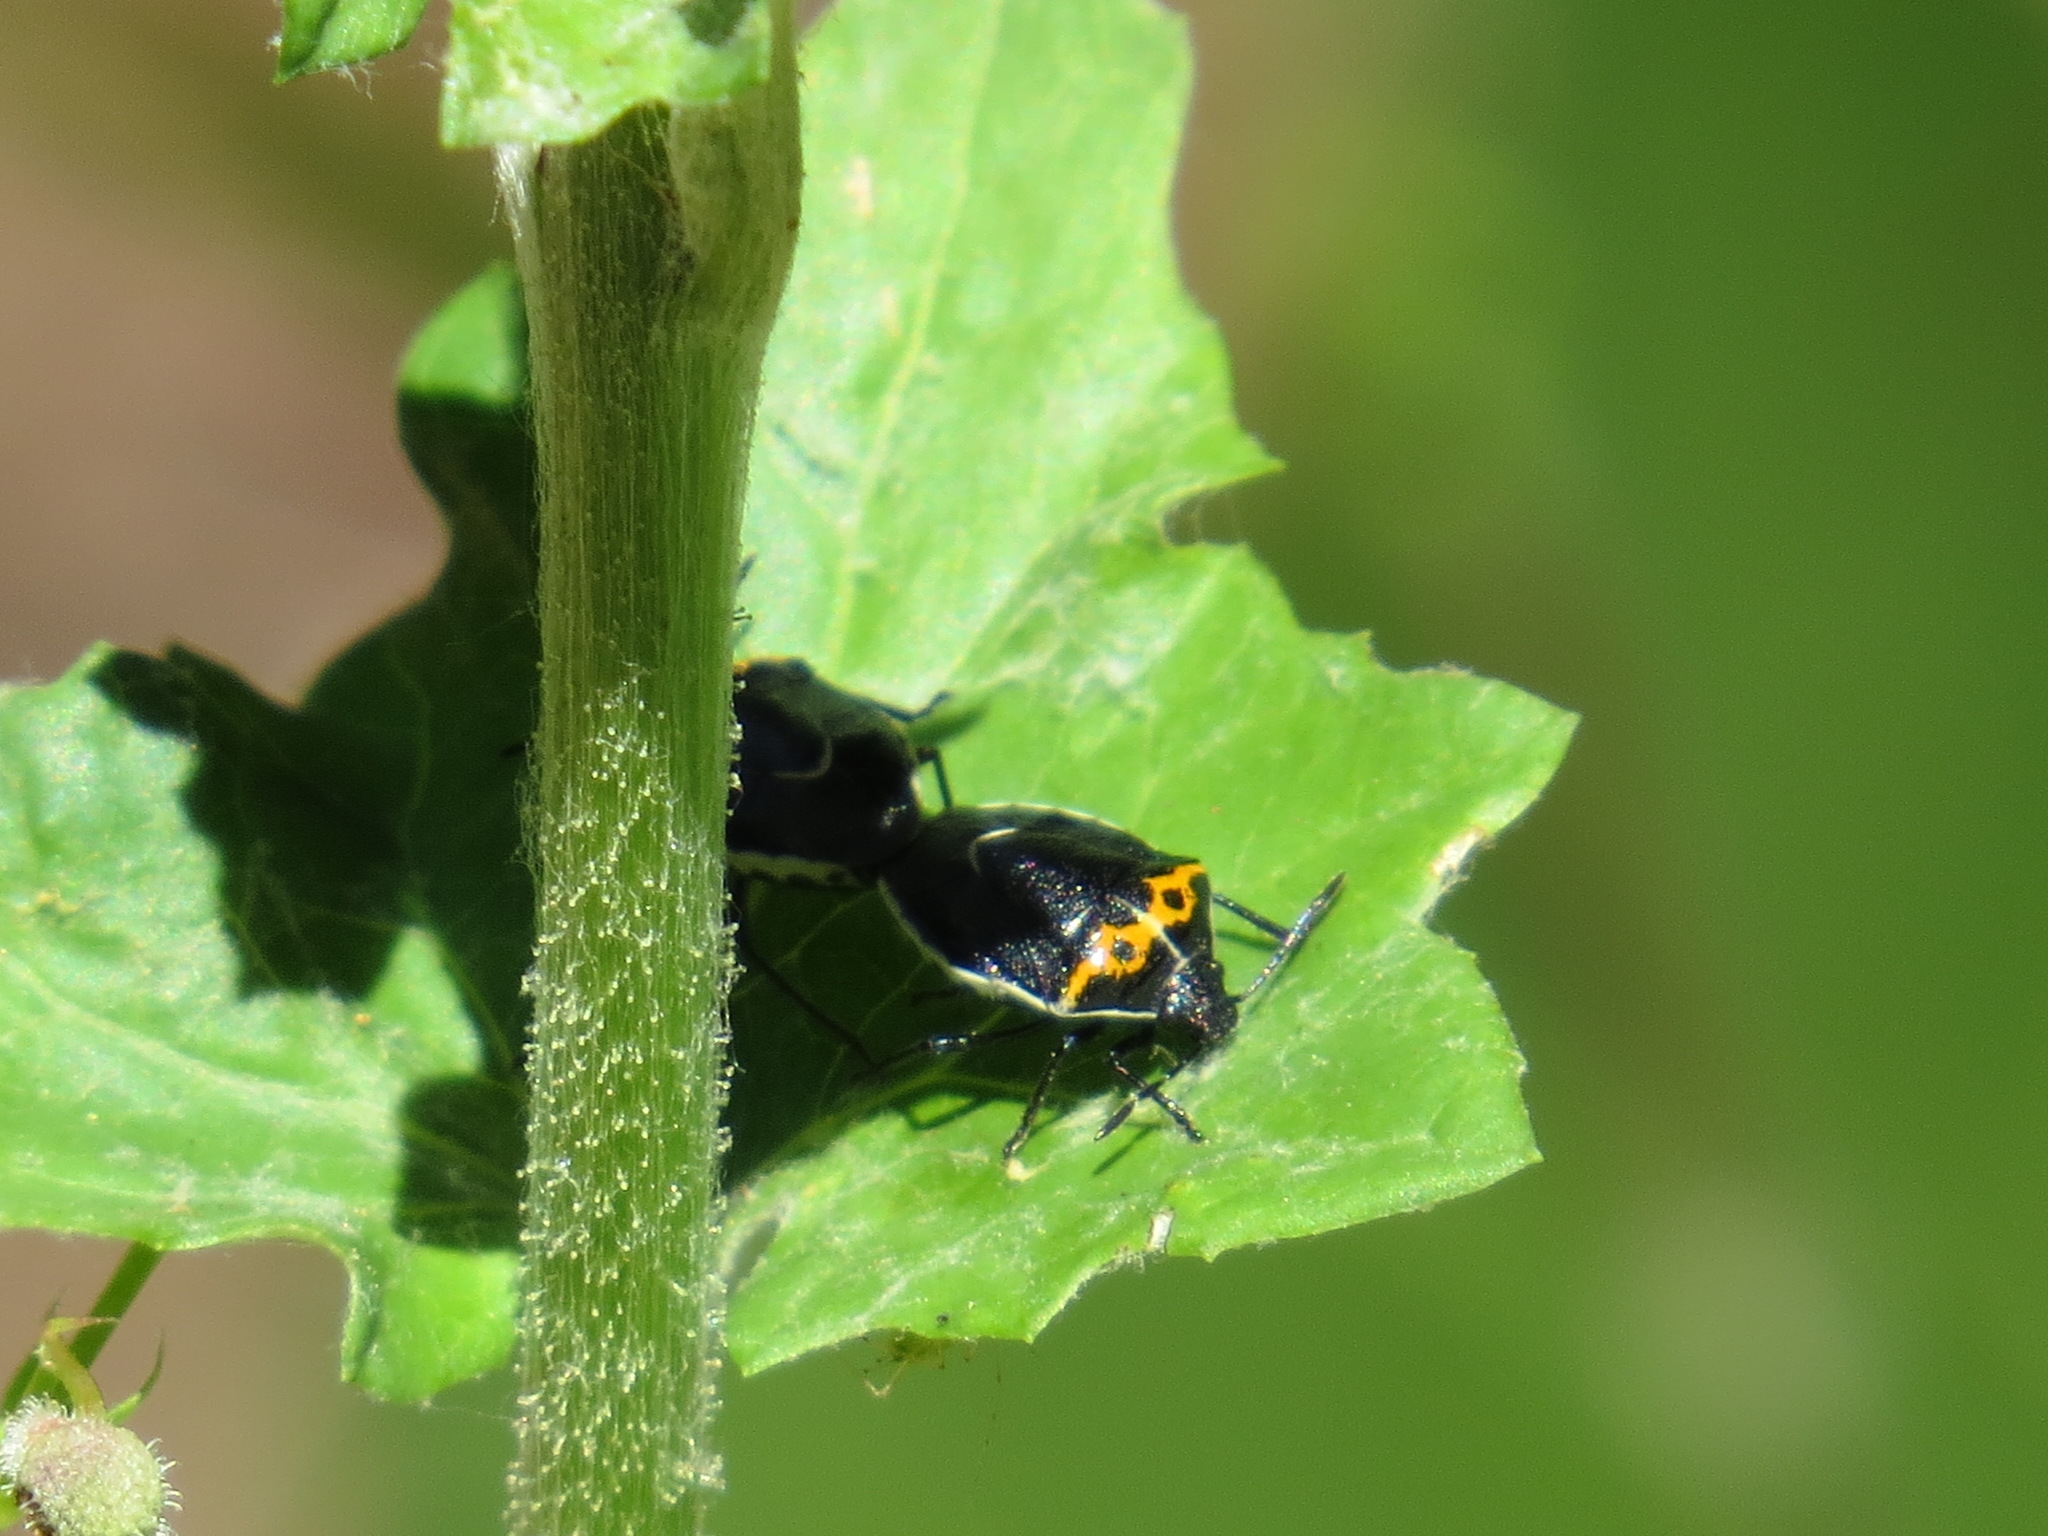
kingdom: Animalia
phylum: Arthropoda
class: Insecta
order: Hemiptera
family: Pentatomidae
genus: Cosmopepla
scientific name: Cosmopepla conspicillaris
